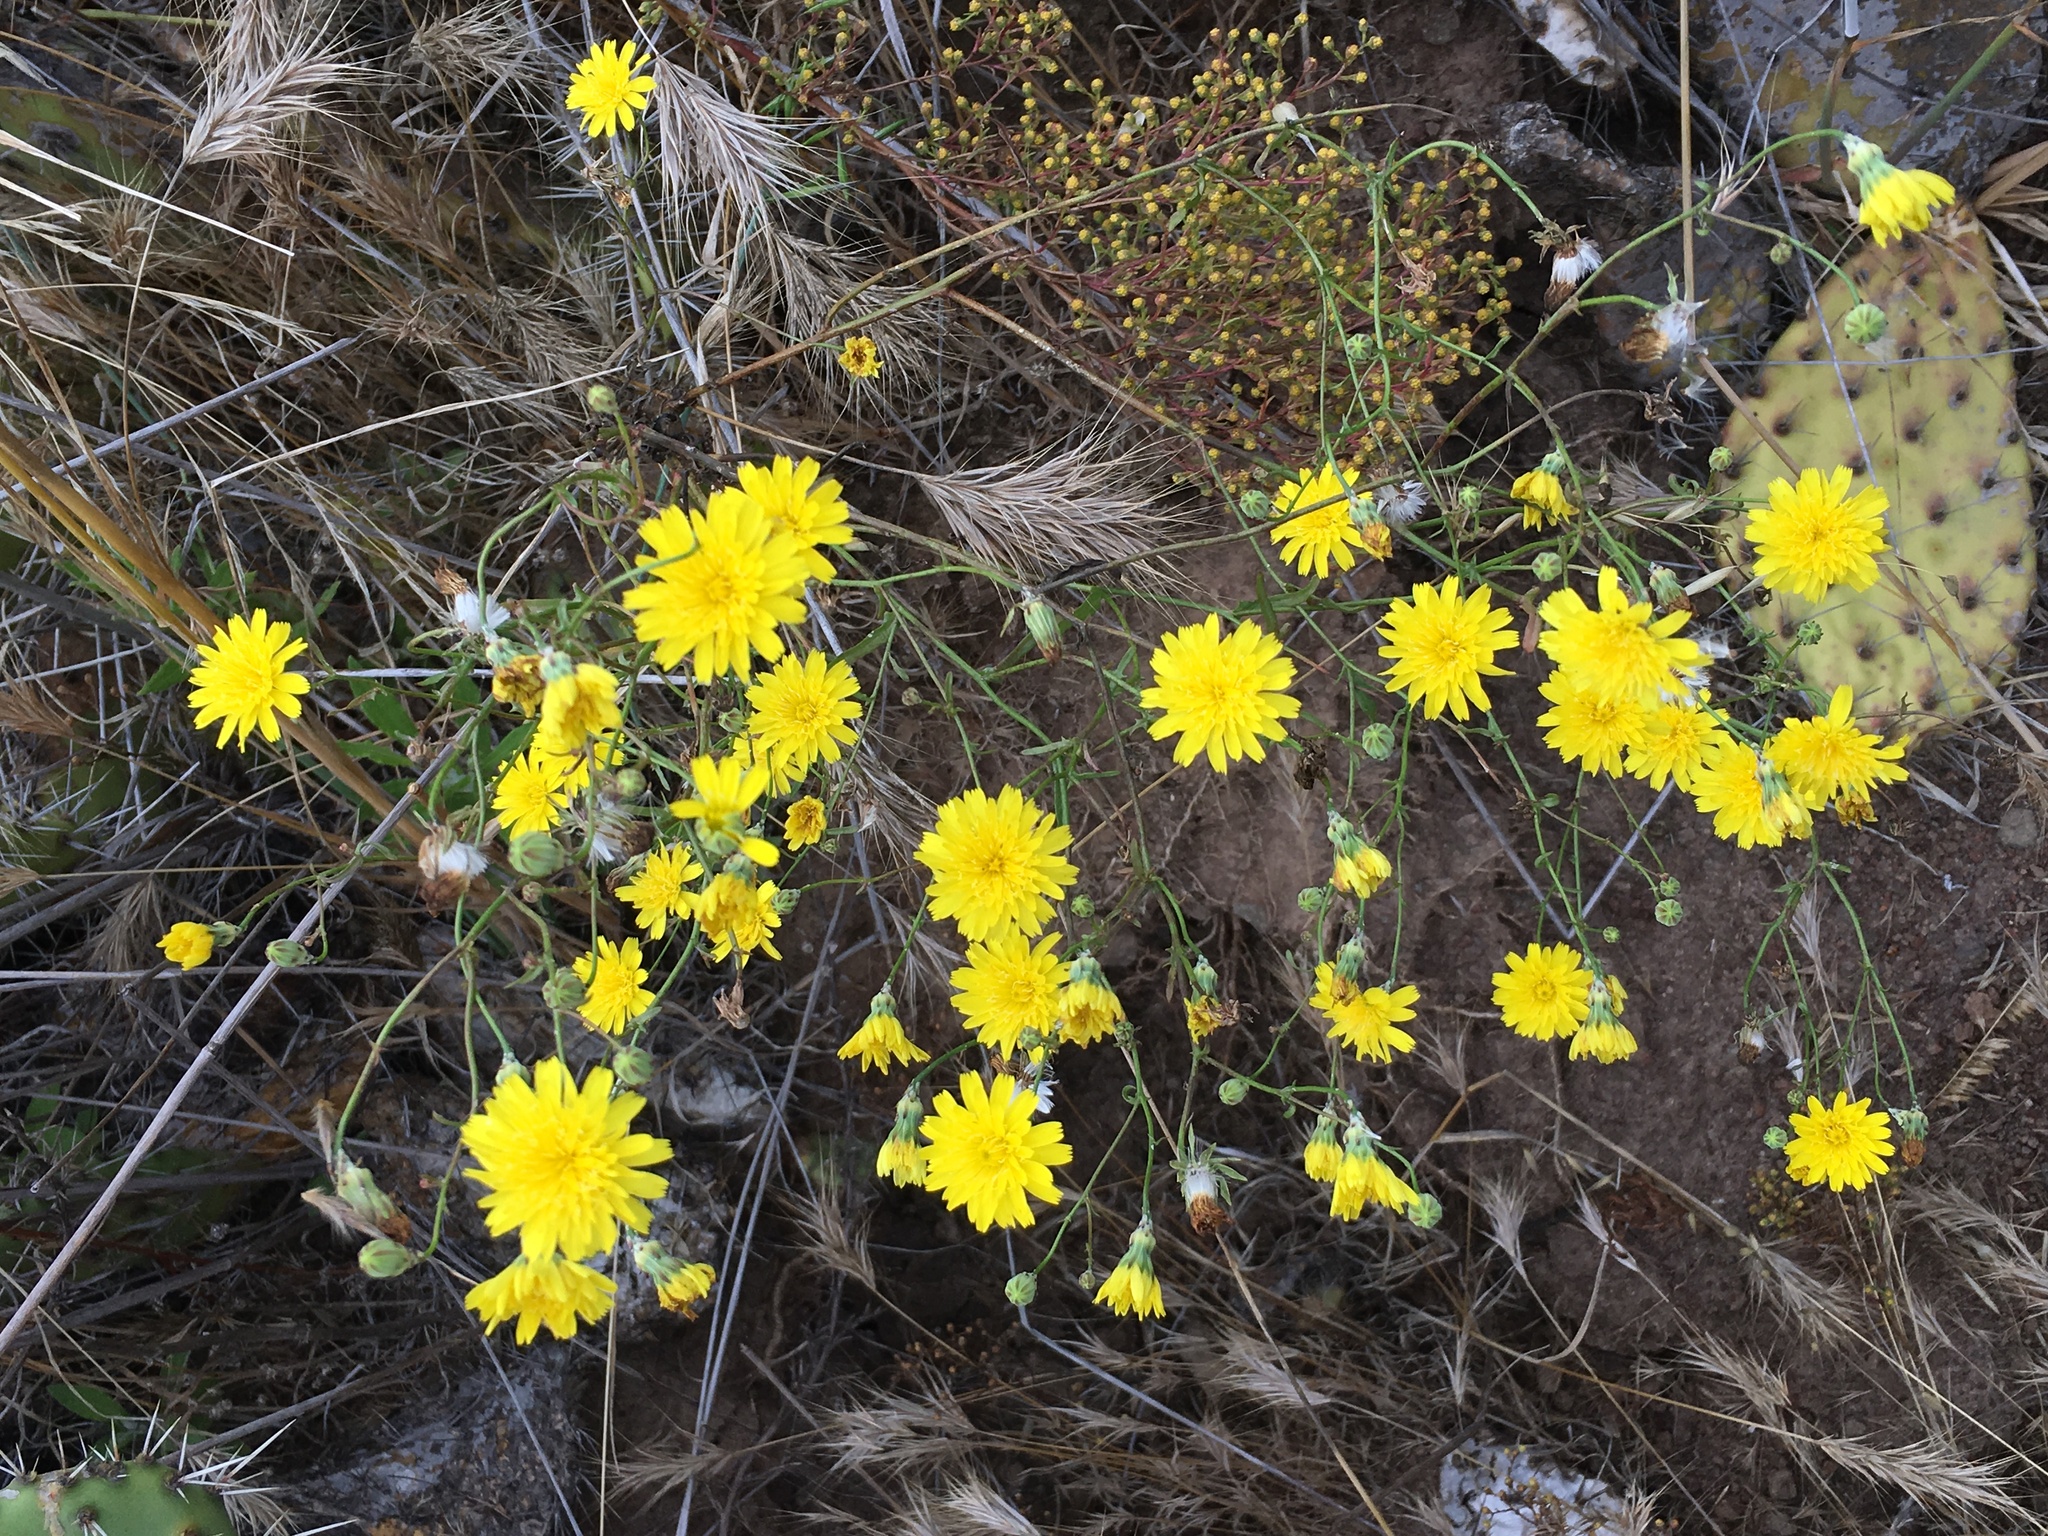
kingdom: Plantae
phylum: Tracheophyta
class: Magnoliopsida
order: Asterales
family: Asteraceae
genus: Malacothrix
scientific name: Malacothrix foliosa
